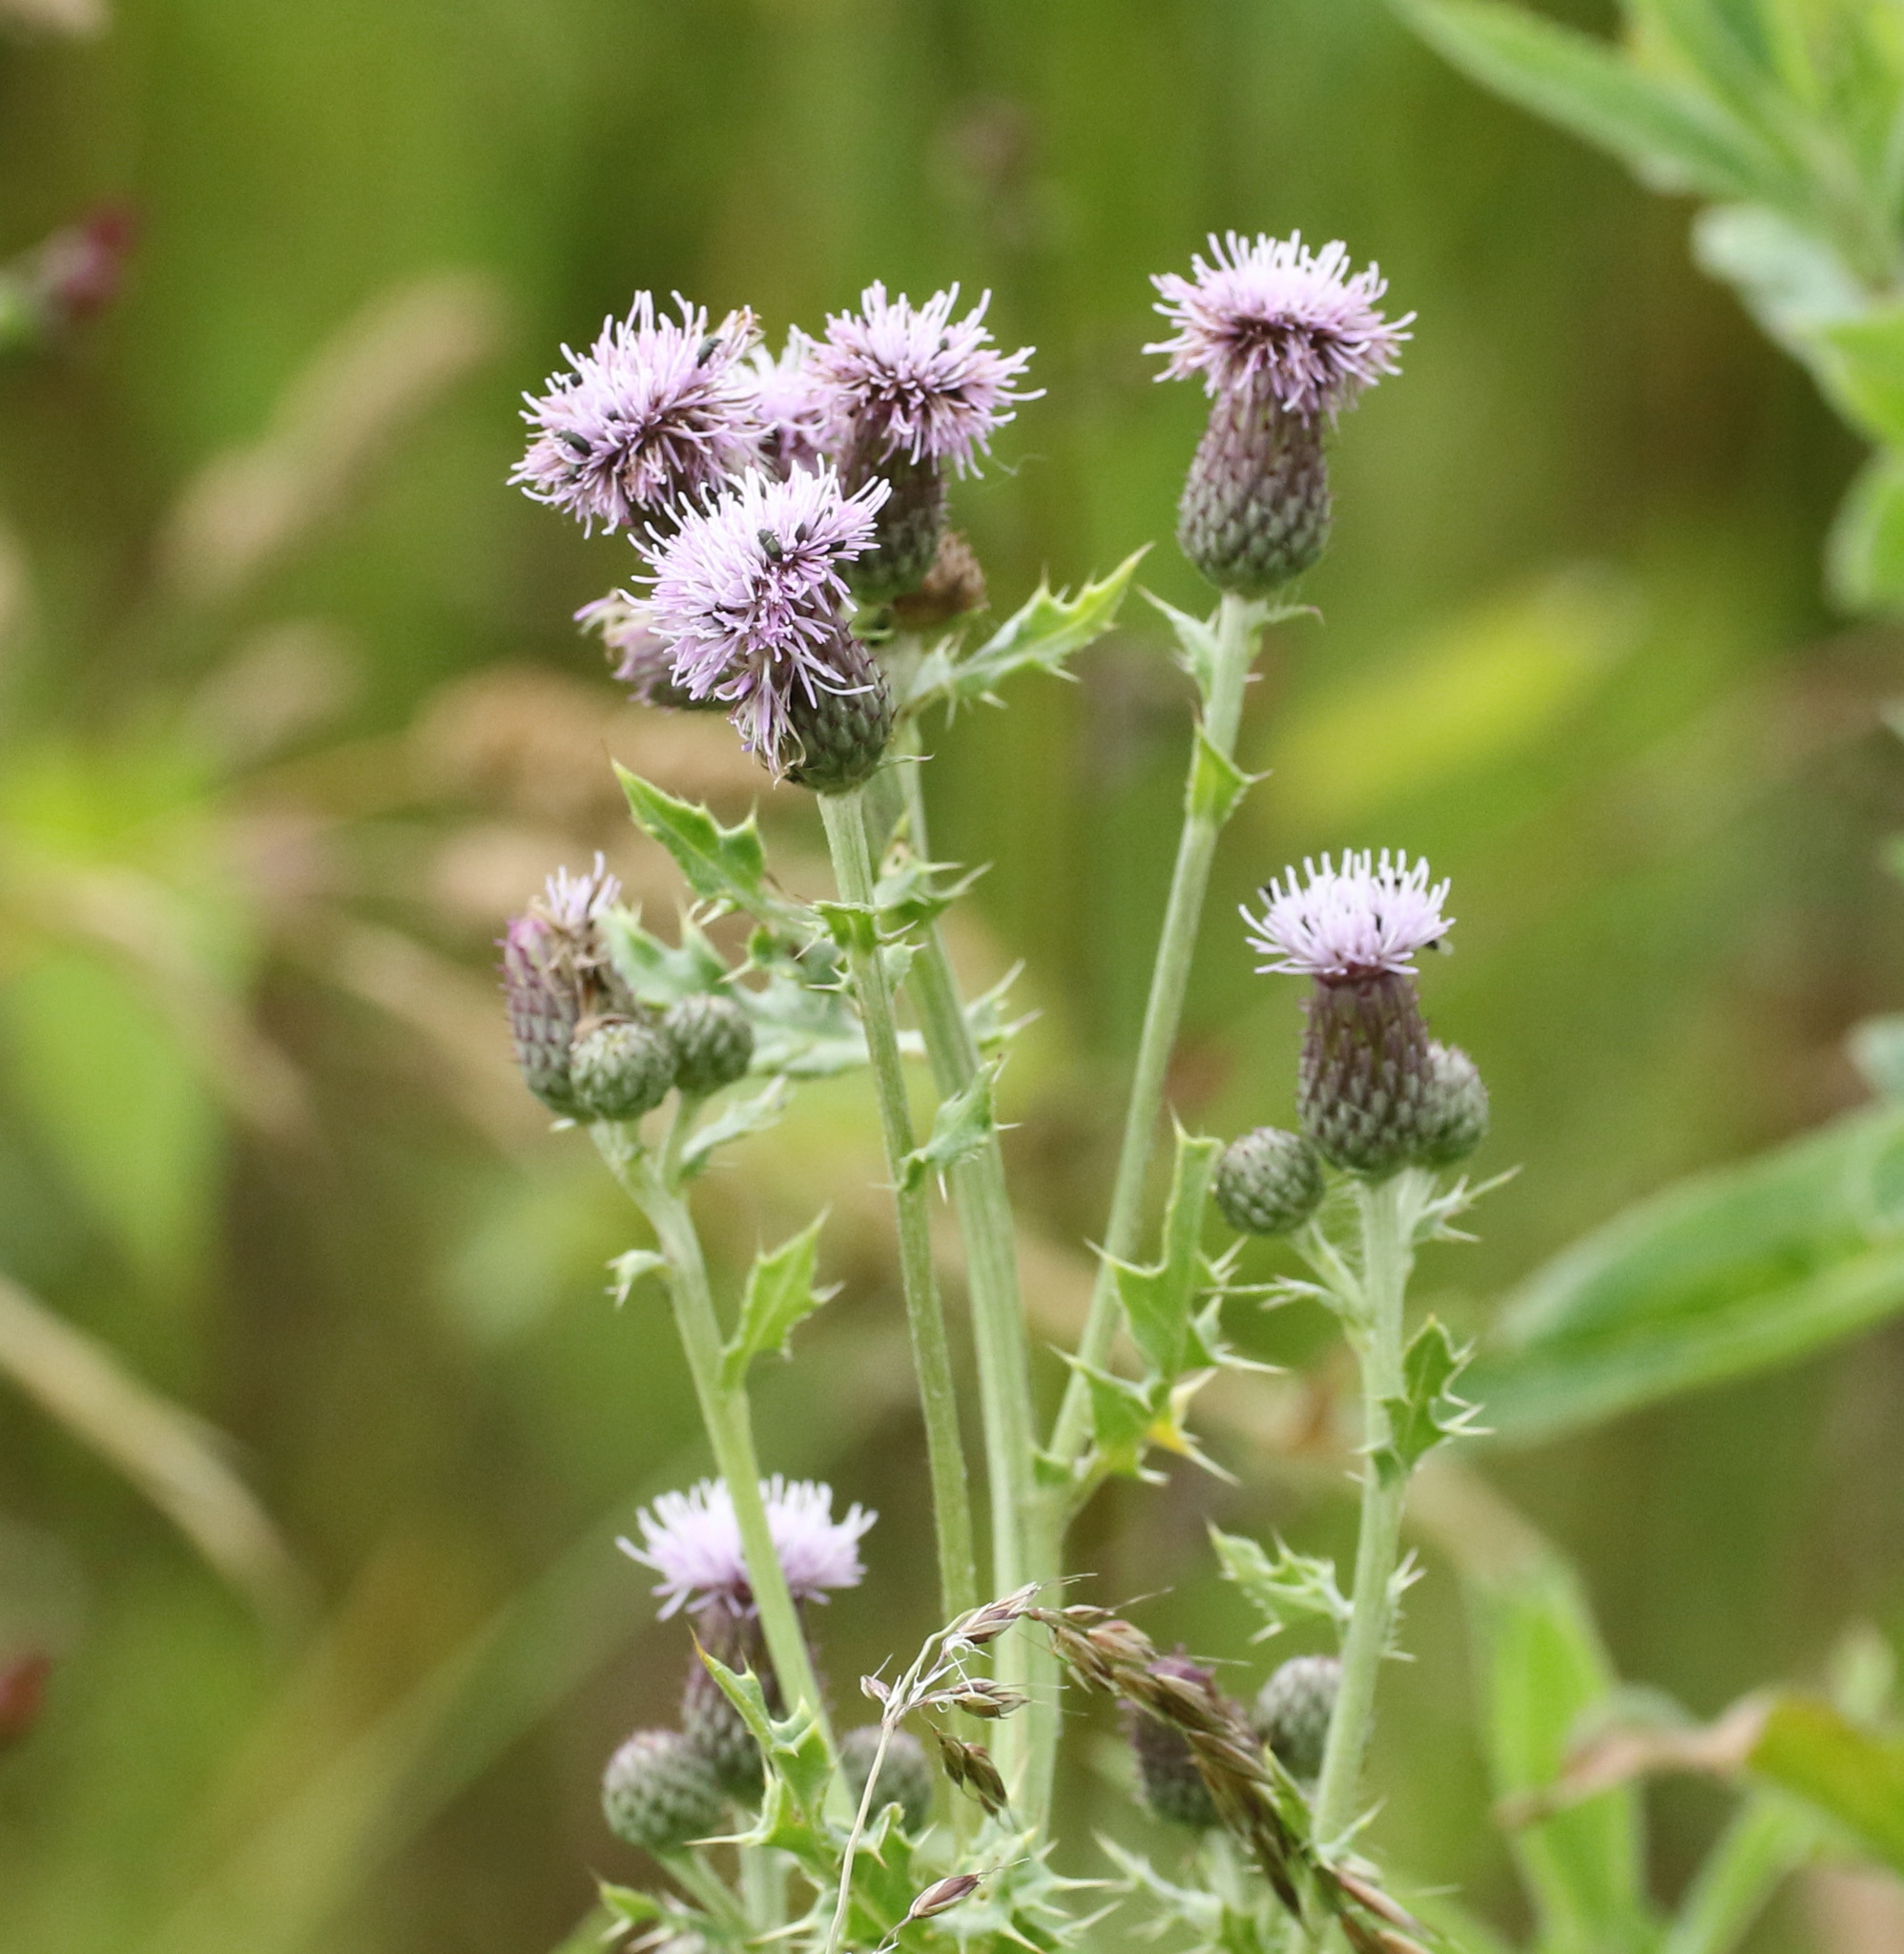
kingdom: Plantae
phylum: Tracheophyta
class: Magnoliopsida
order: Asterales
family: Asteraceae
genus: Cirsium
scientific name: Cirsium arvense
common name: Creeping thistle
